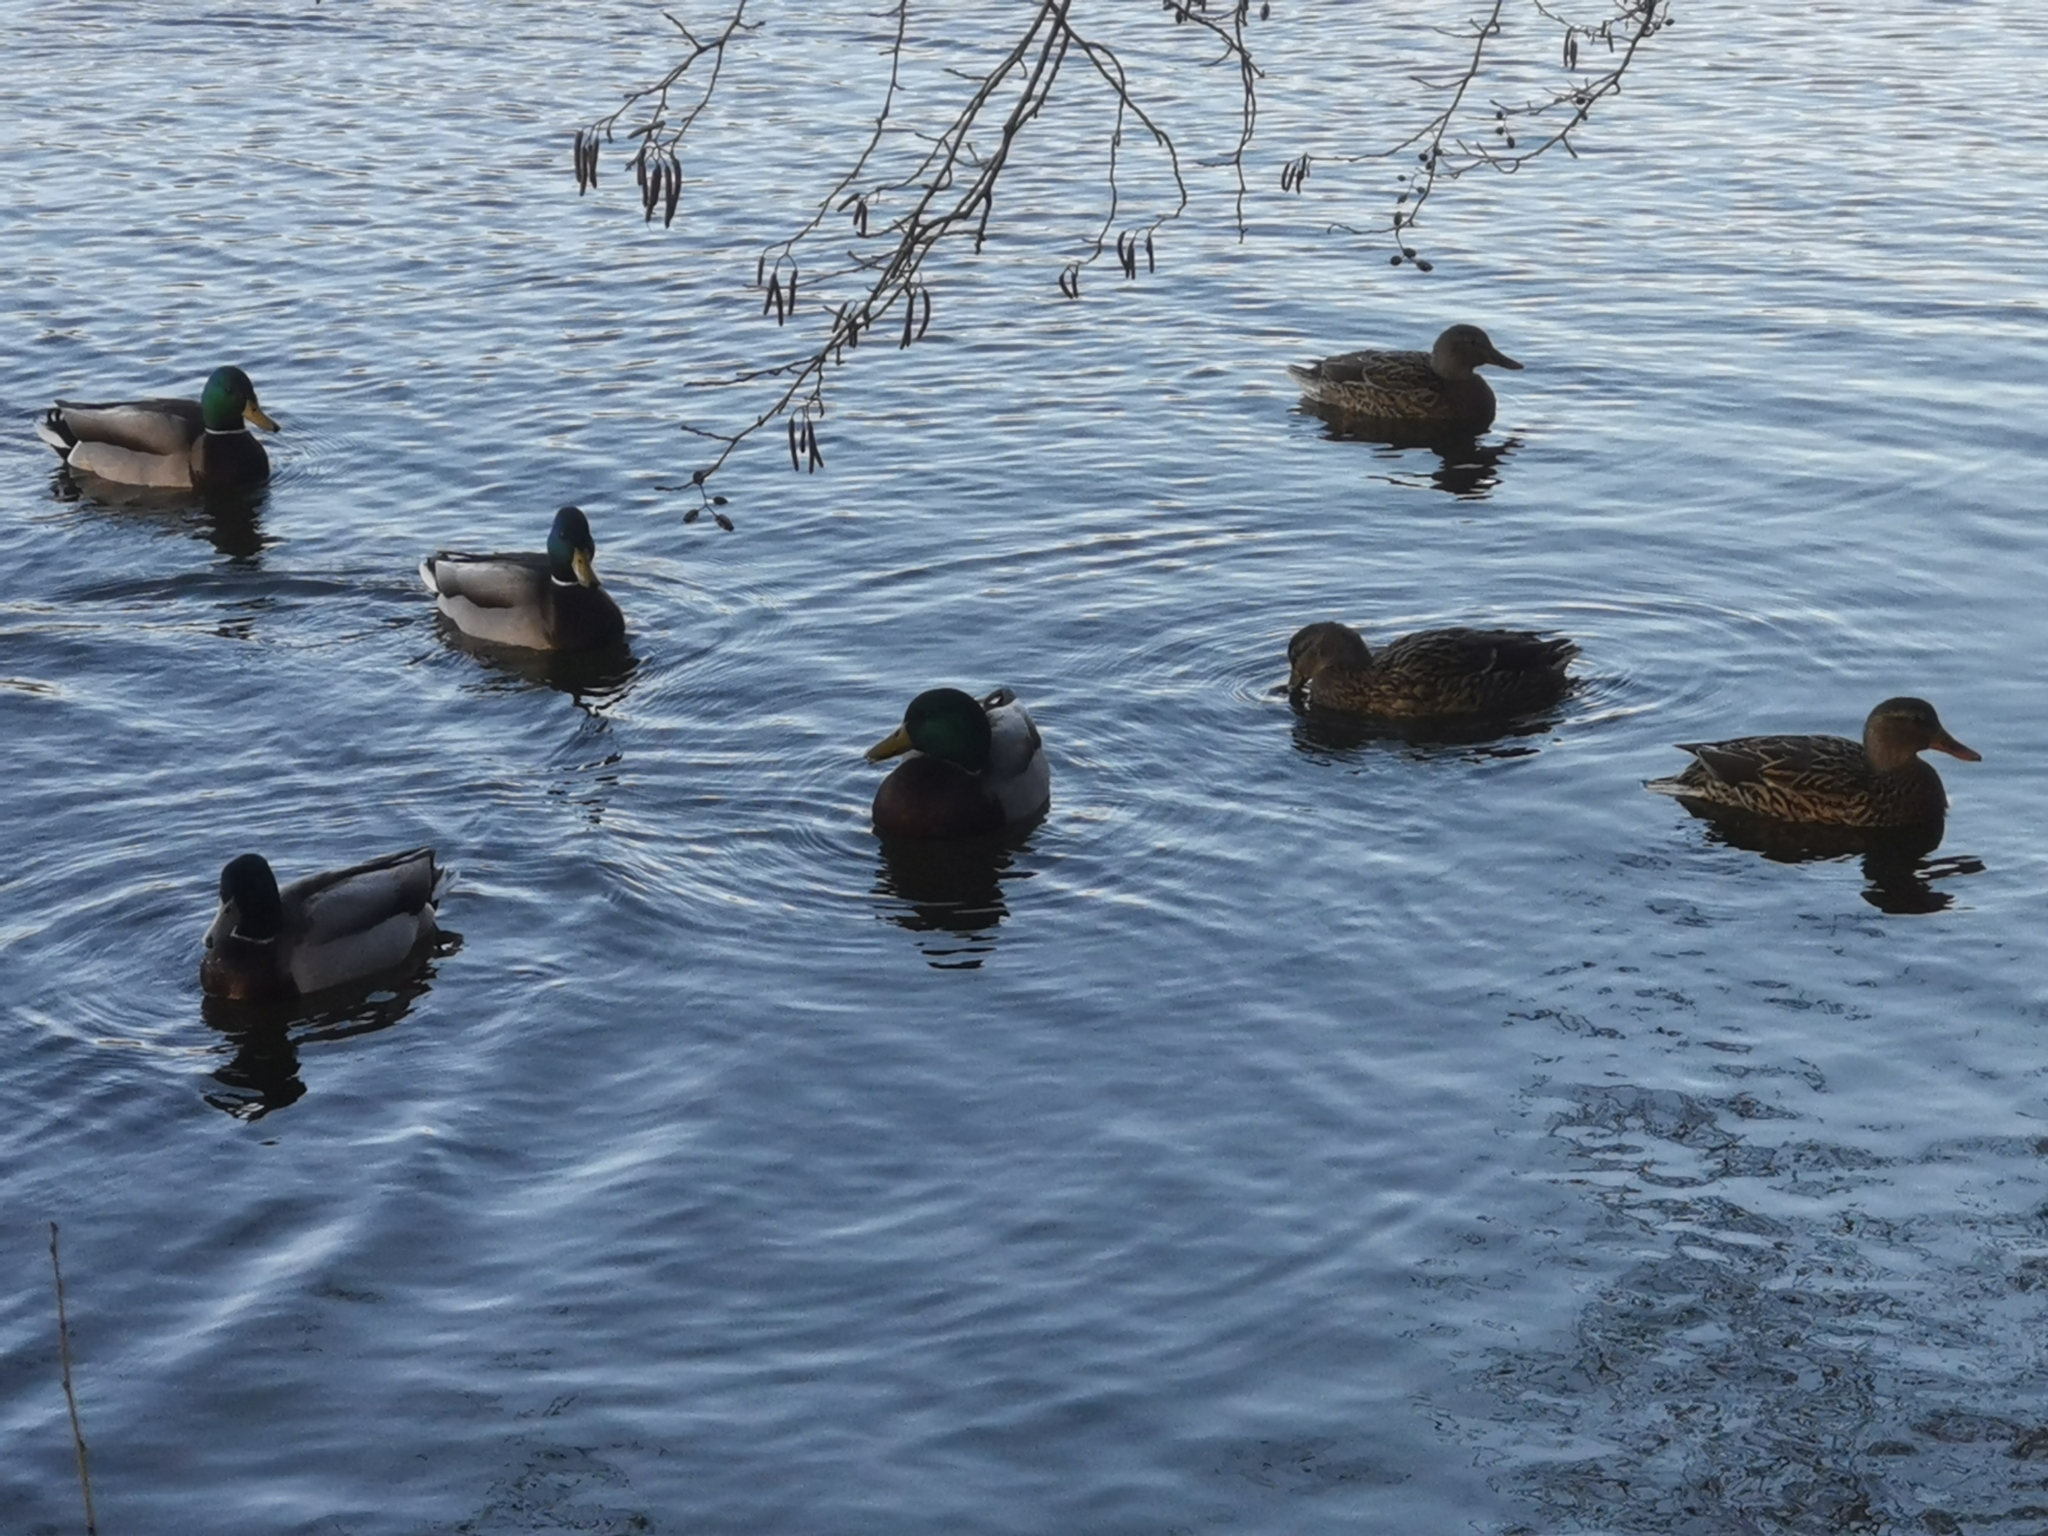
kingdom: Animalia
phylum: Chordata
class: Aves
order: Anseriformes
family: Anatidae
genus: Anas
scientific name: Anas platyrhynchos
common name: Mallard
